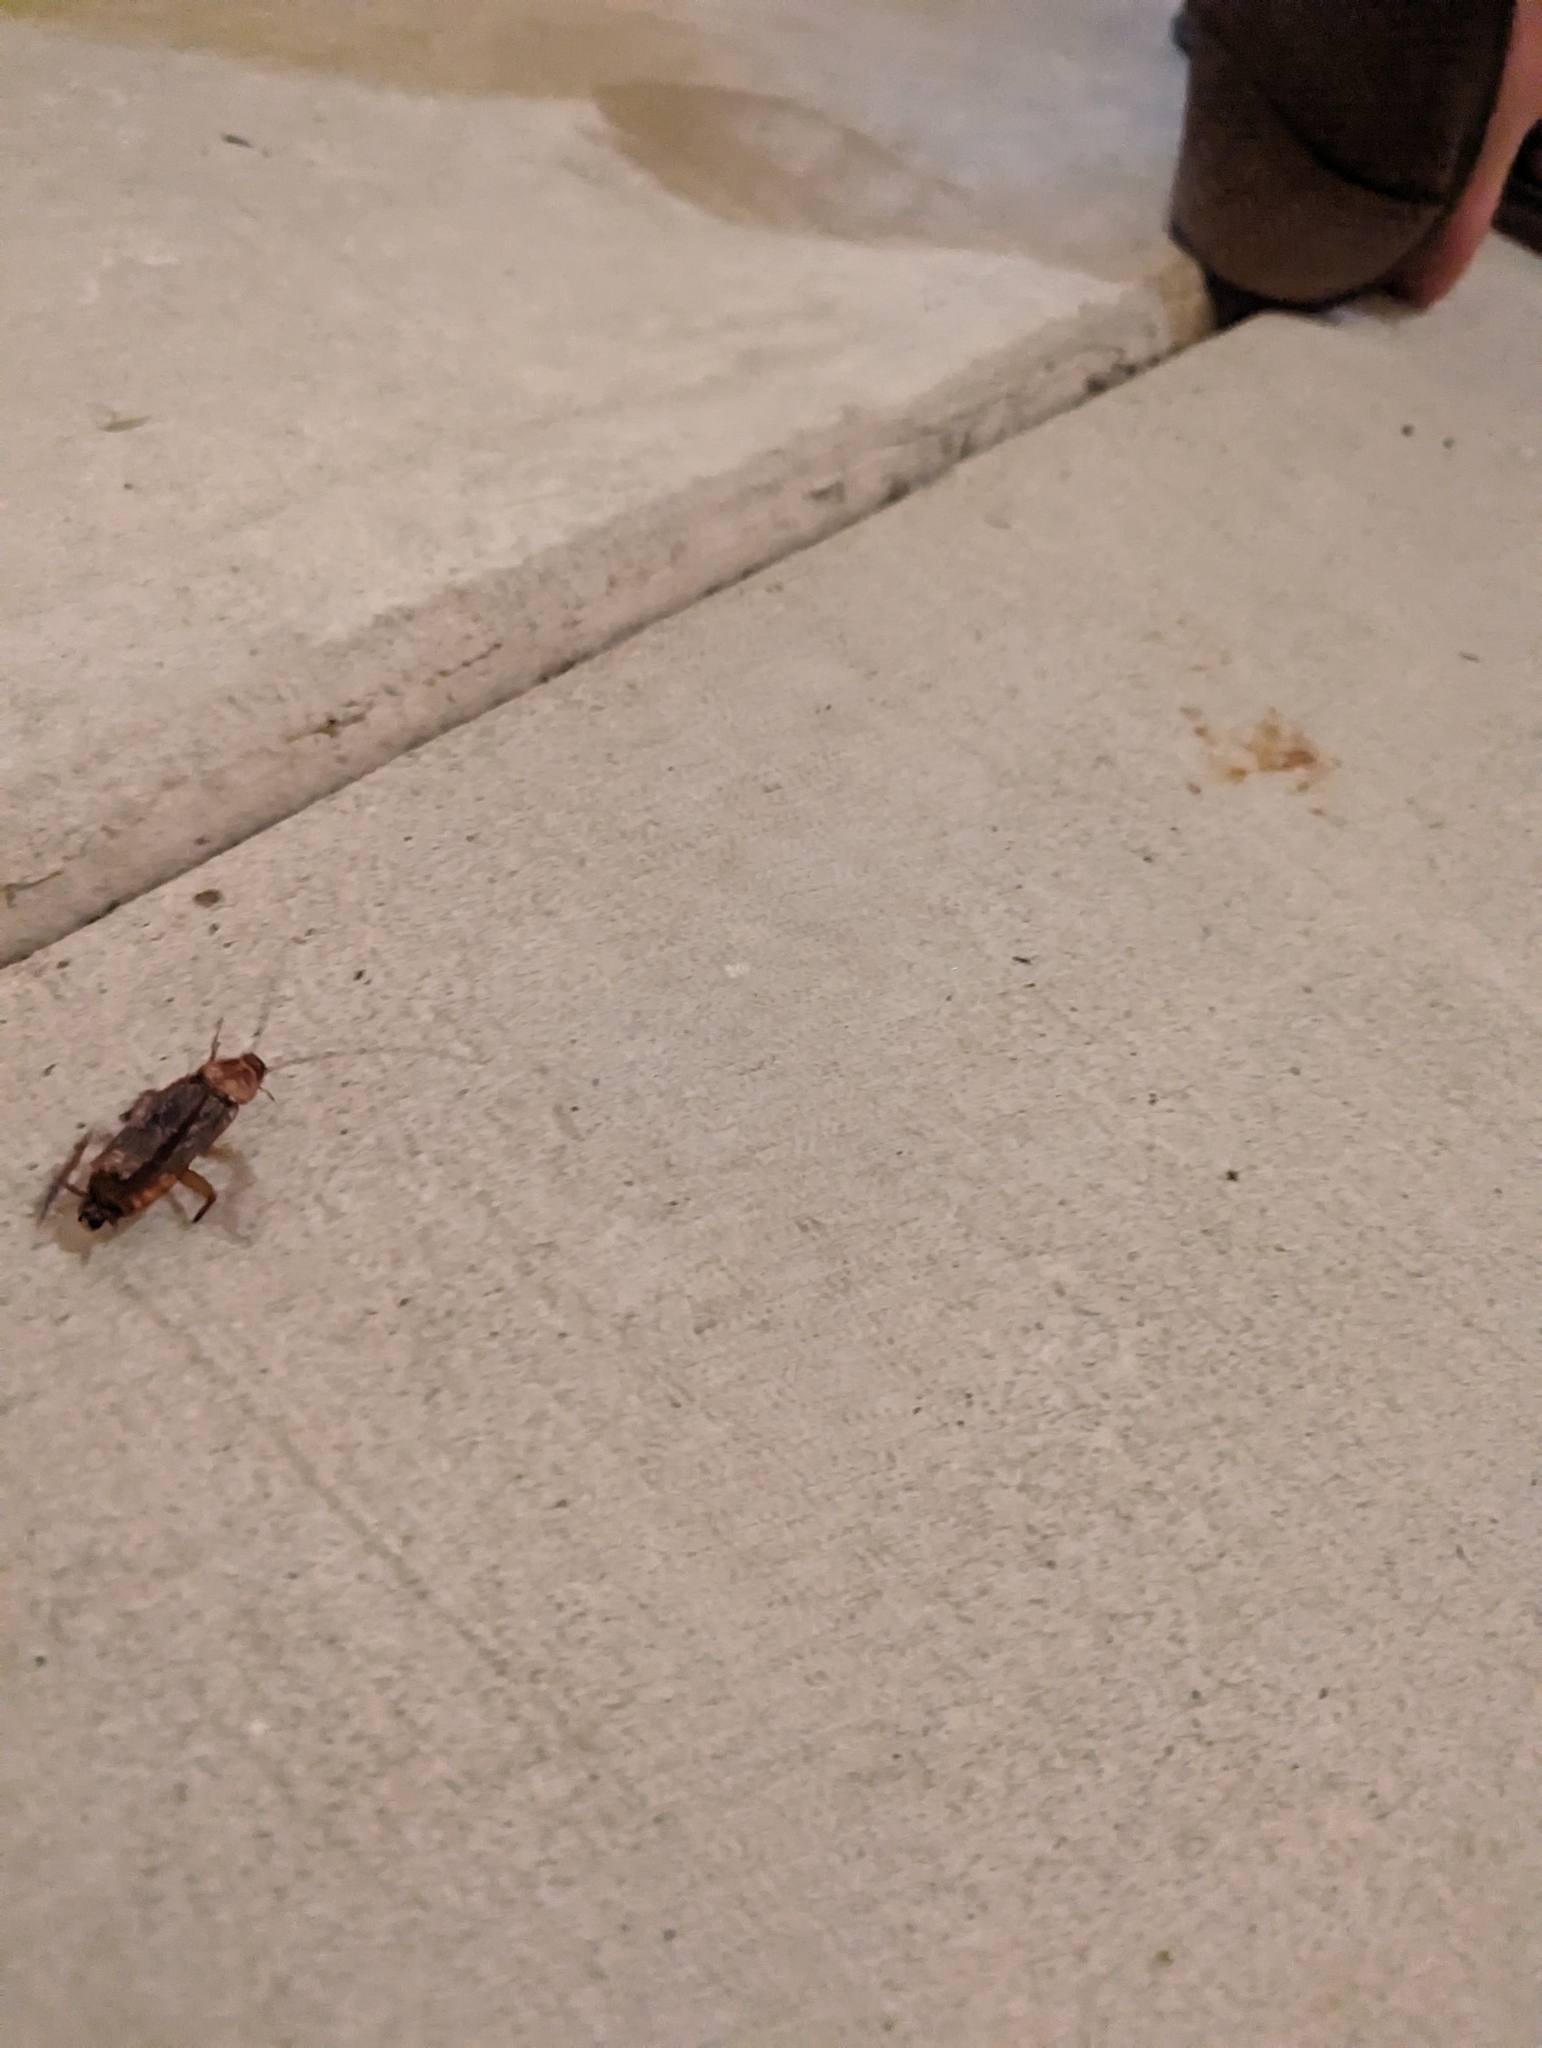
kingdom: Animalia
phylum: Arthropoda
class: Insecta
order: Blattodea
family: Blattidae
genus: Periplaneta
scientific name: Periplaneta americana
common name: American cockroach
